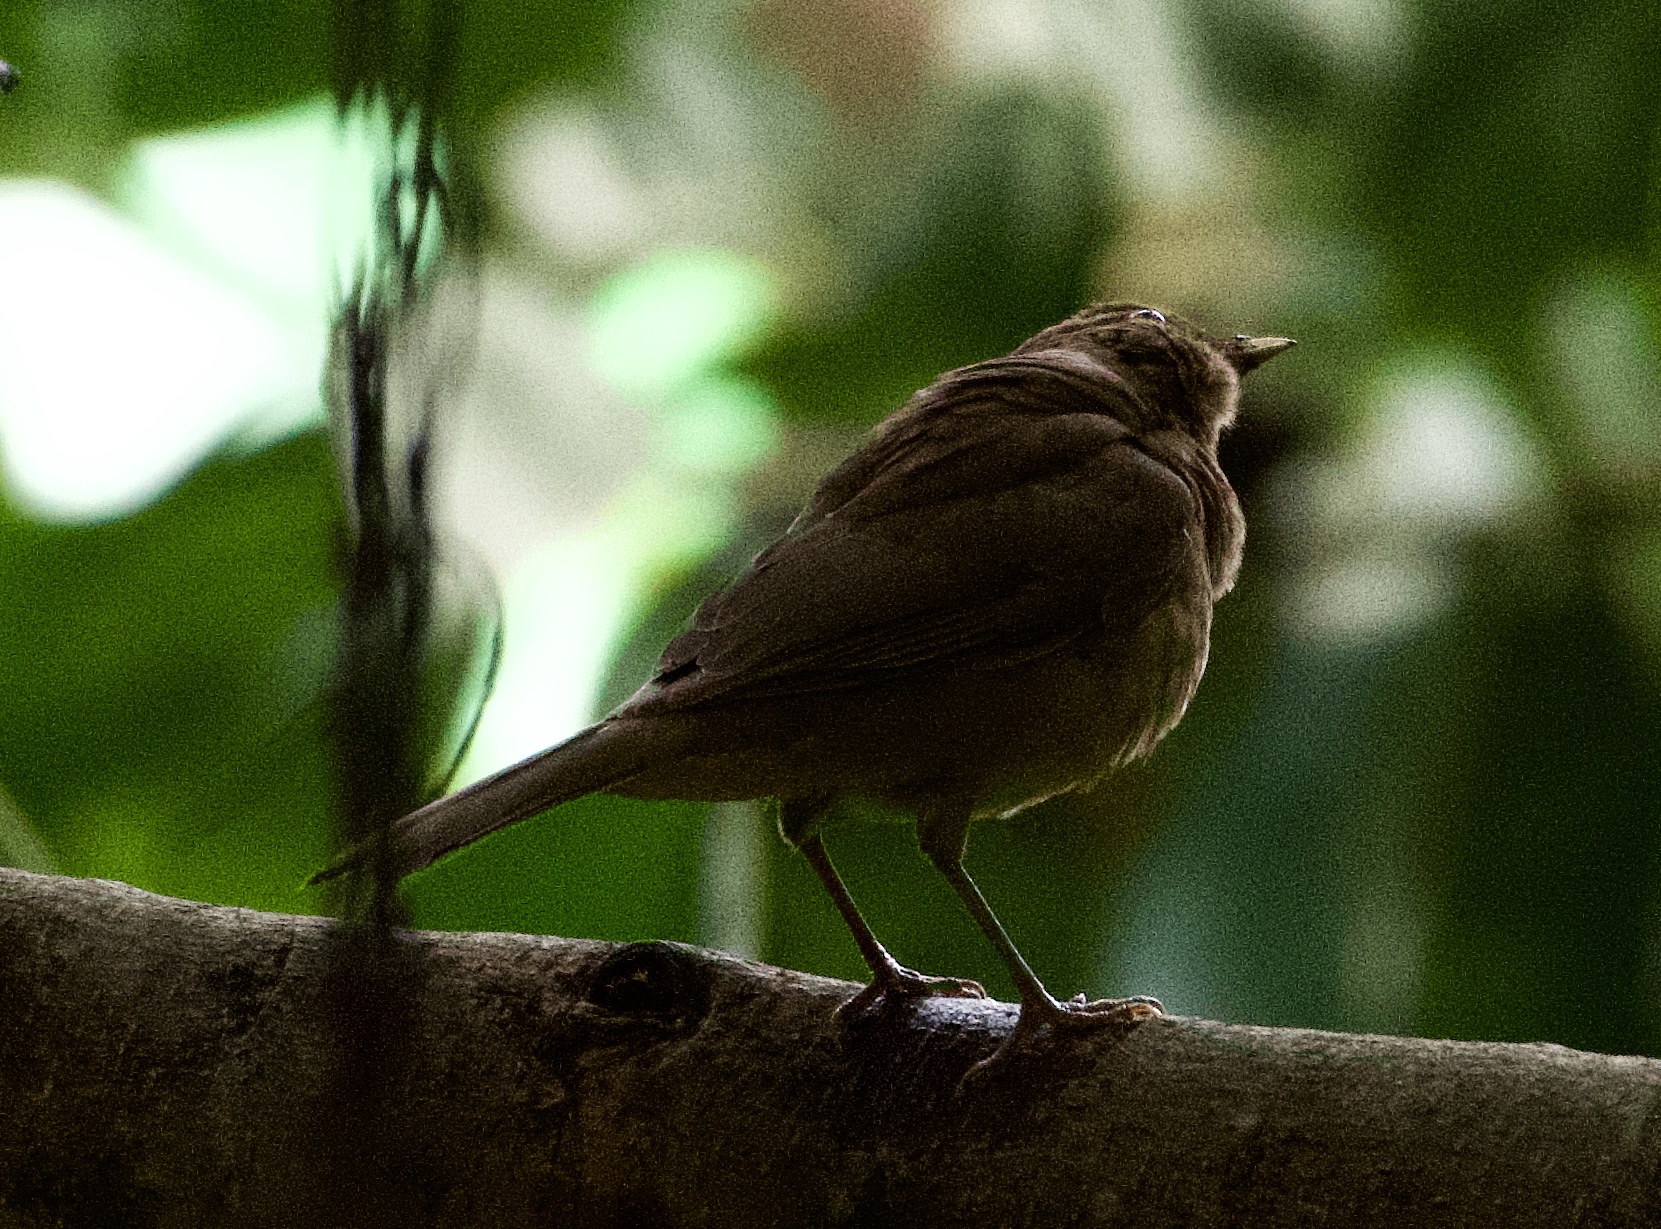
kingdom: Animalia
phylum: Chordata
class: Aves
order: Passeriformes
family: Turdidae
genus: Turdus
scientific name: Turdus grayi
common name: Clay-colored thrush
